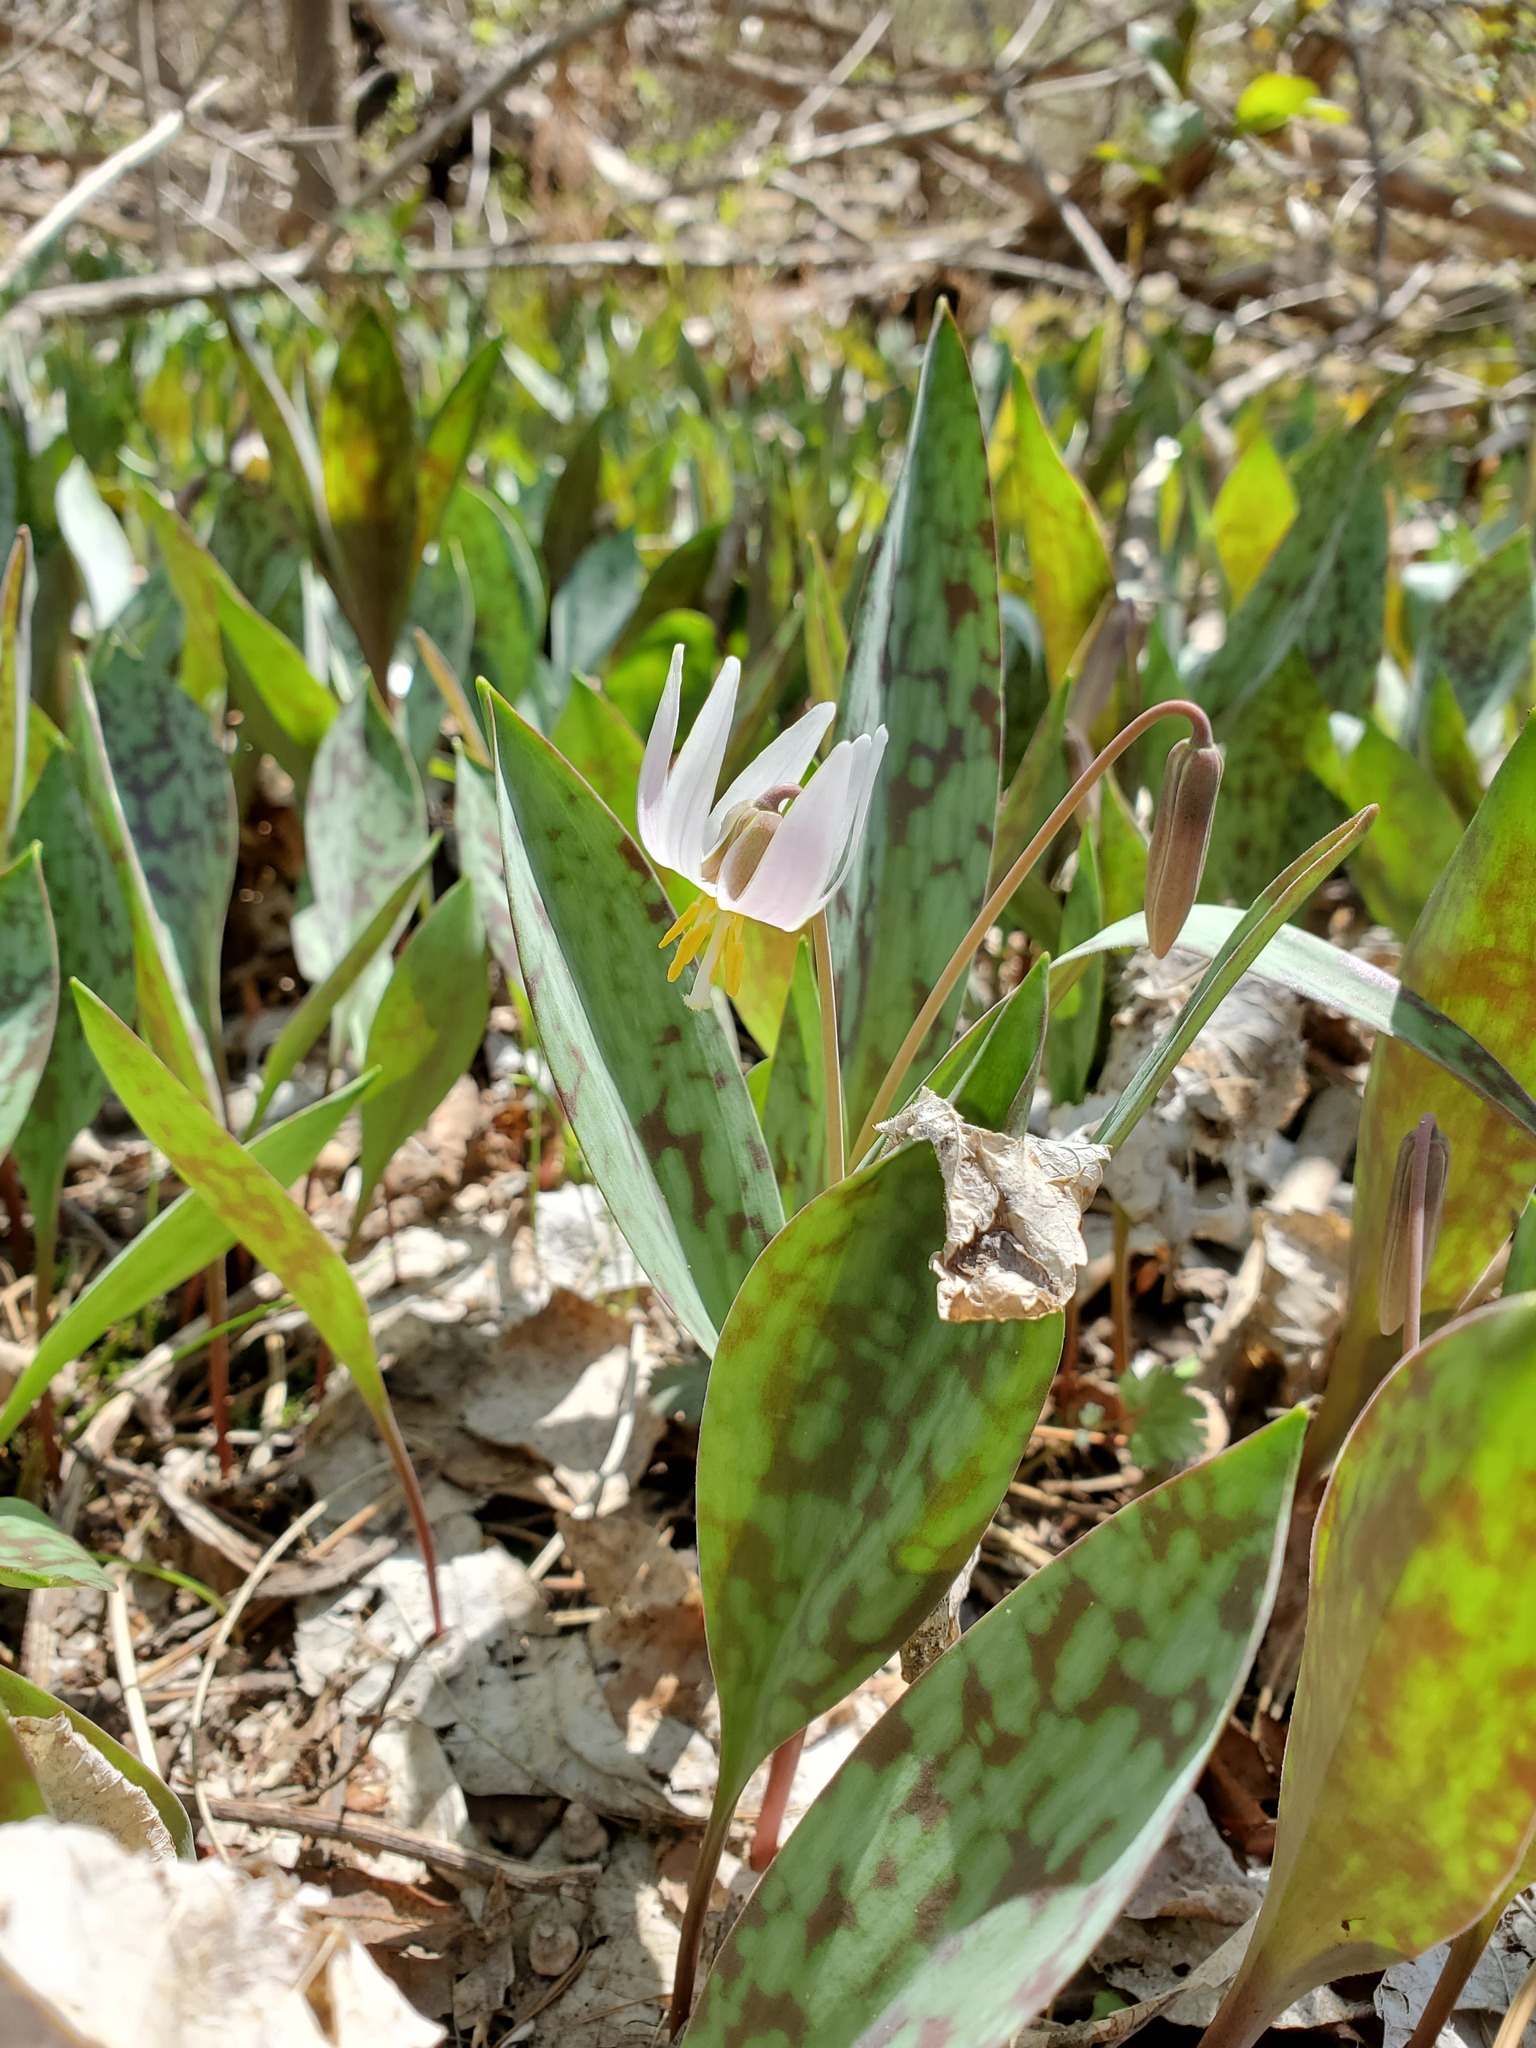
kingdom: Plantae
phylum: Tracheophyta
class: Liliopsida
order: Liliales
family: Liliaceae
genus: Erythronium
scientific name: Erythronium albidum
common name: White trout-lily
